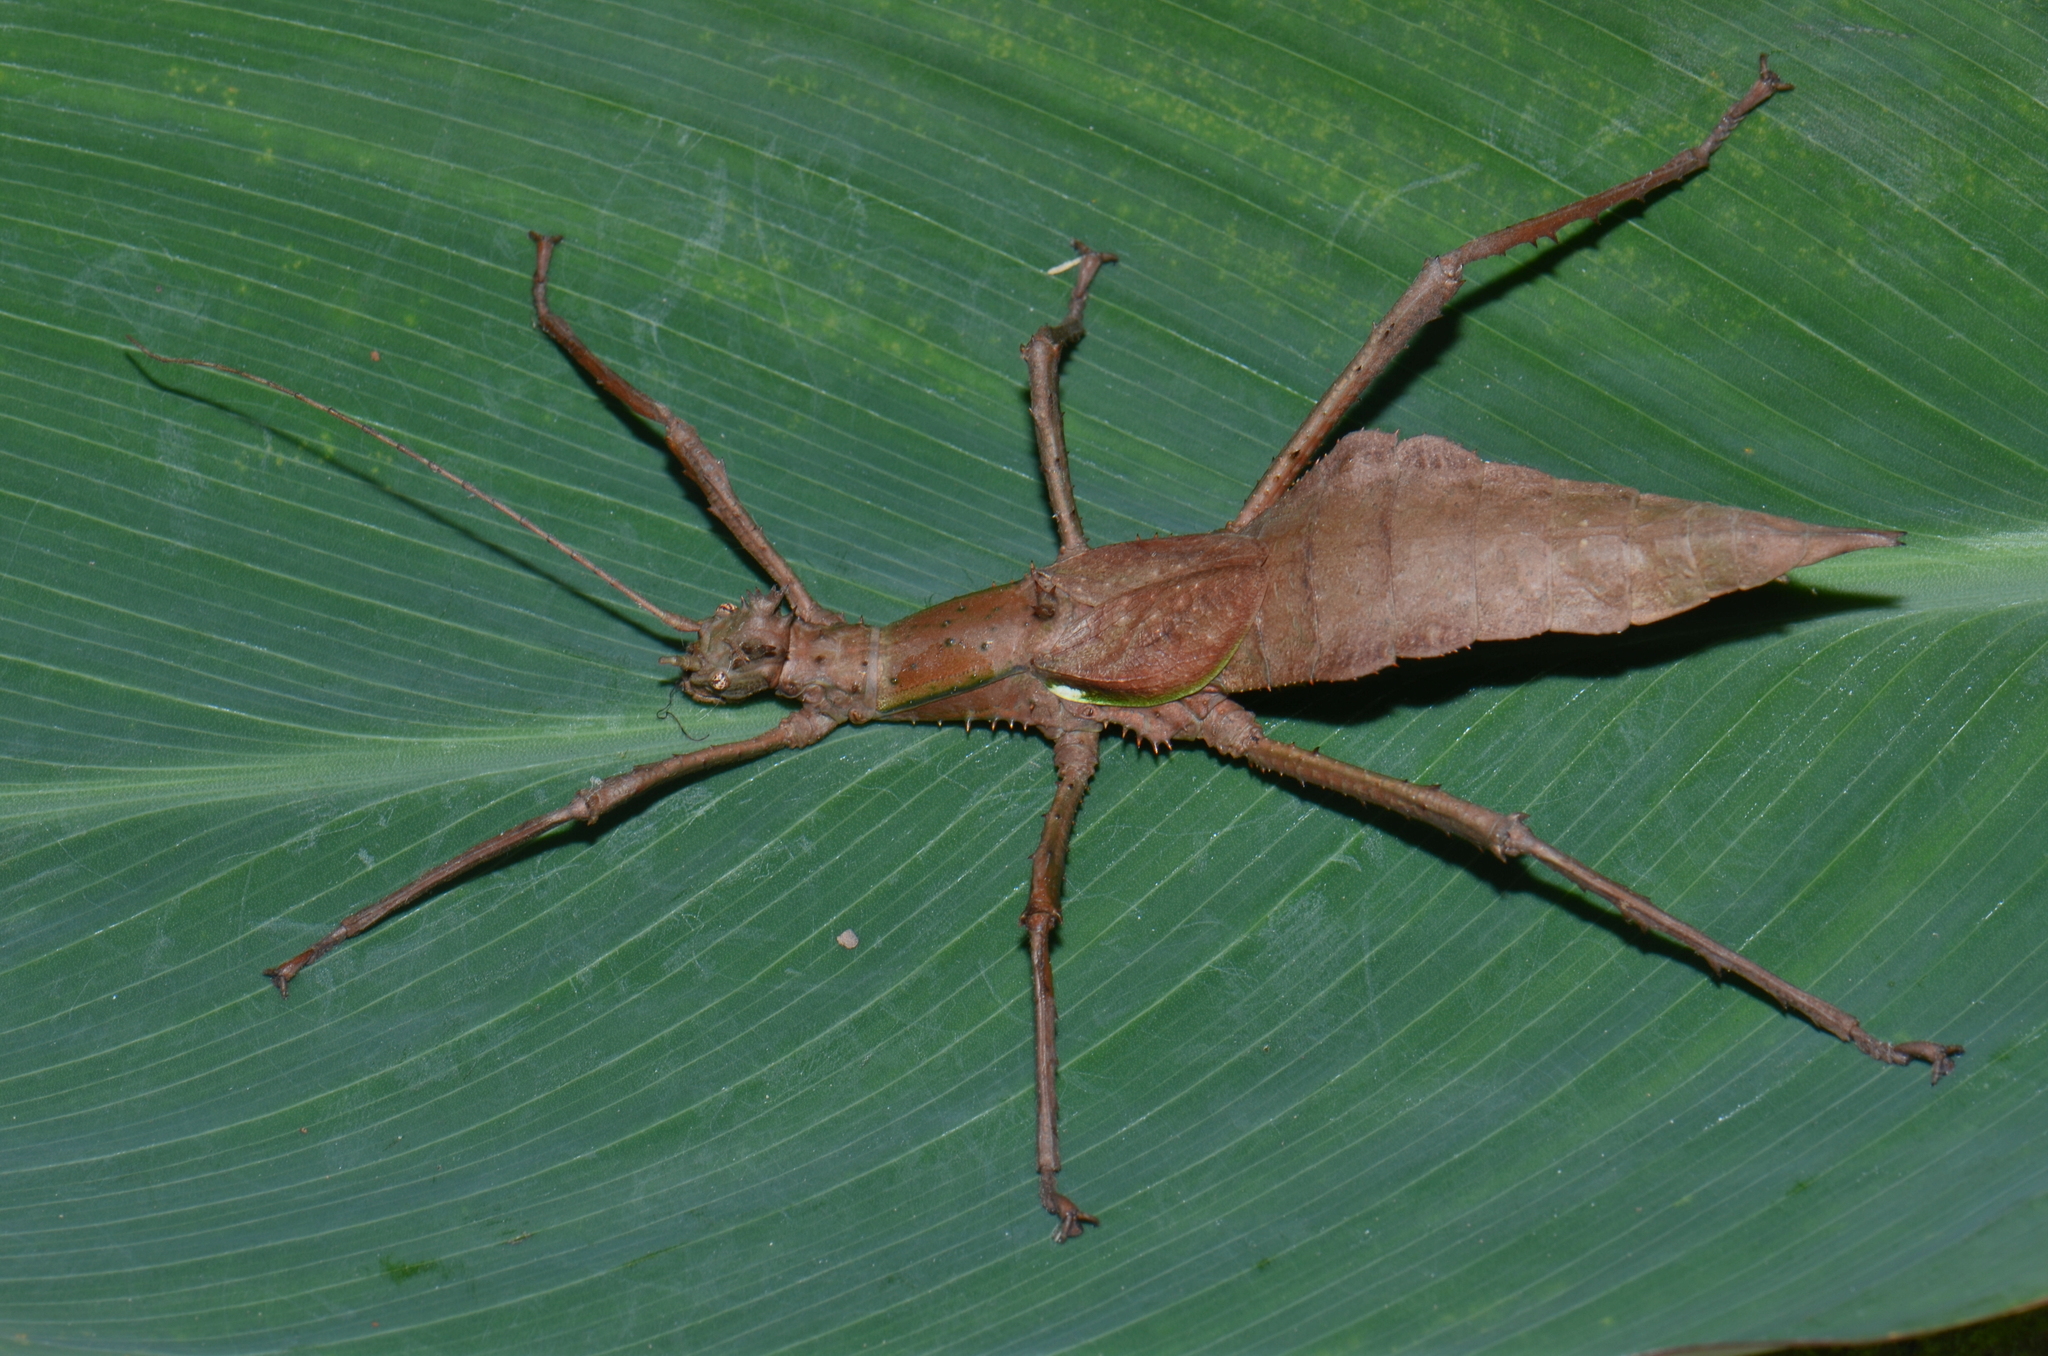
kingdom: Animalia
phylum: Arthropoda
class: Insecta
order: Phasmida
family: Heteropterygidae
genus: Haaniella
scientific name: Haaniella gintingi
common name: Ginting’s haaniella
